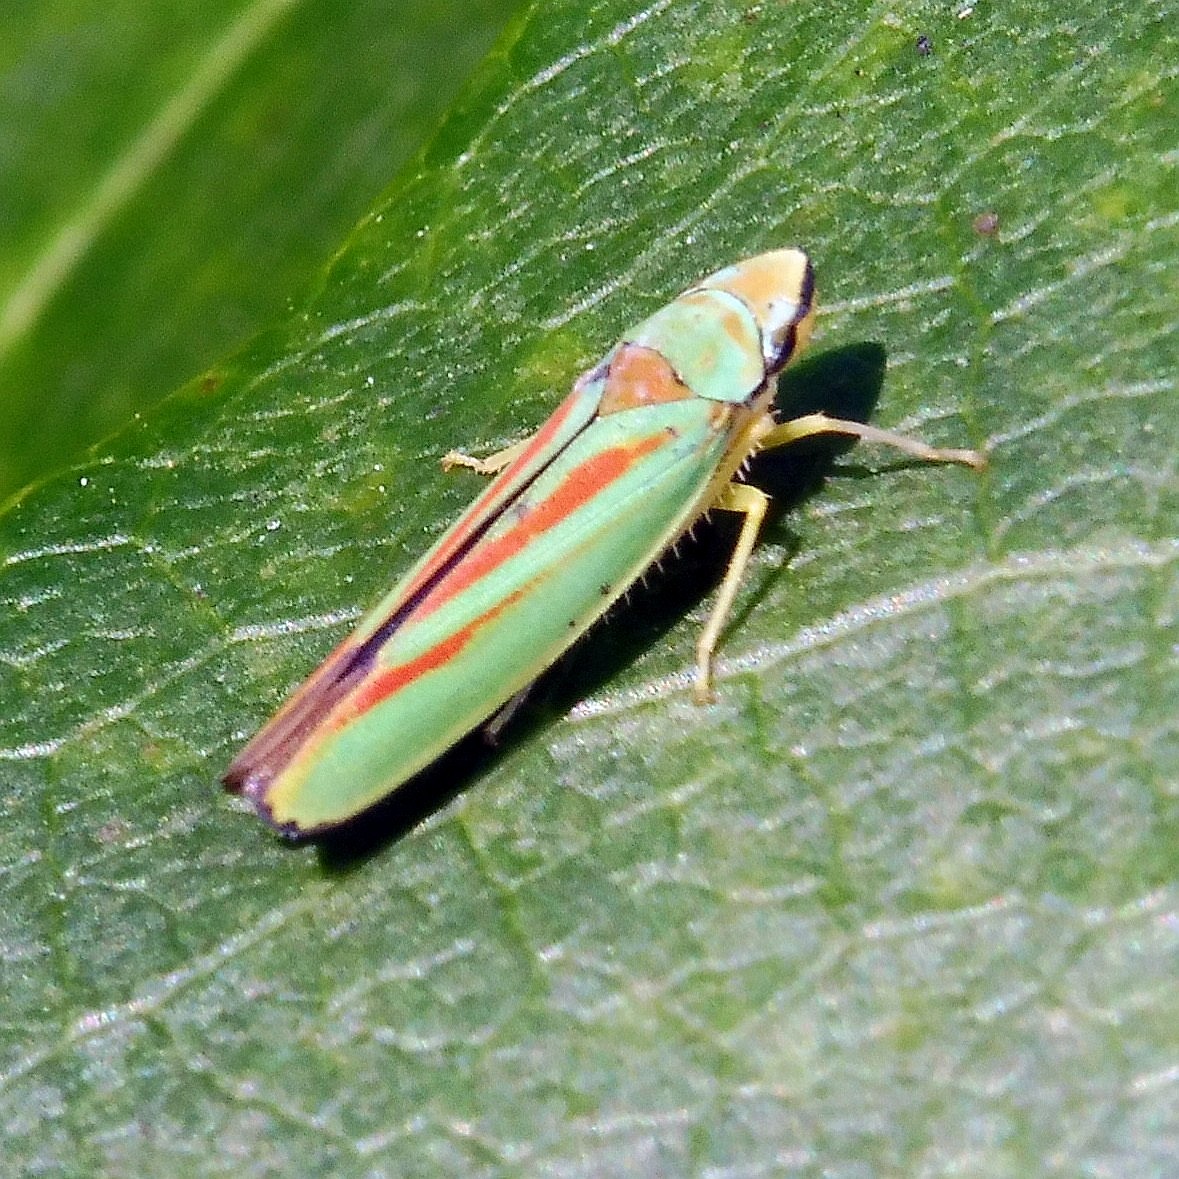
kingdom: Animalia
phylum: Arthropoda
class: Insecta
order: Hemiptera
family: Cicadellidae
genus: Graphocephala
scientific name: Graphocephala fennahi
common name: Rhododendron leafhopper
